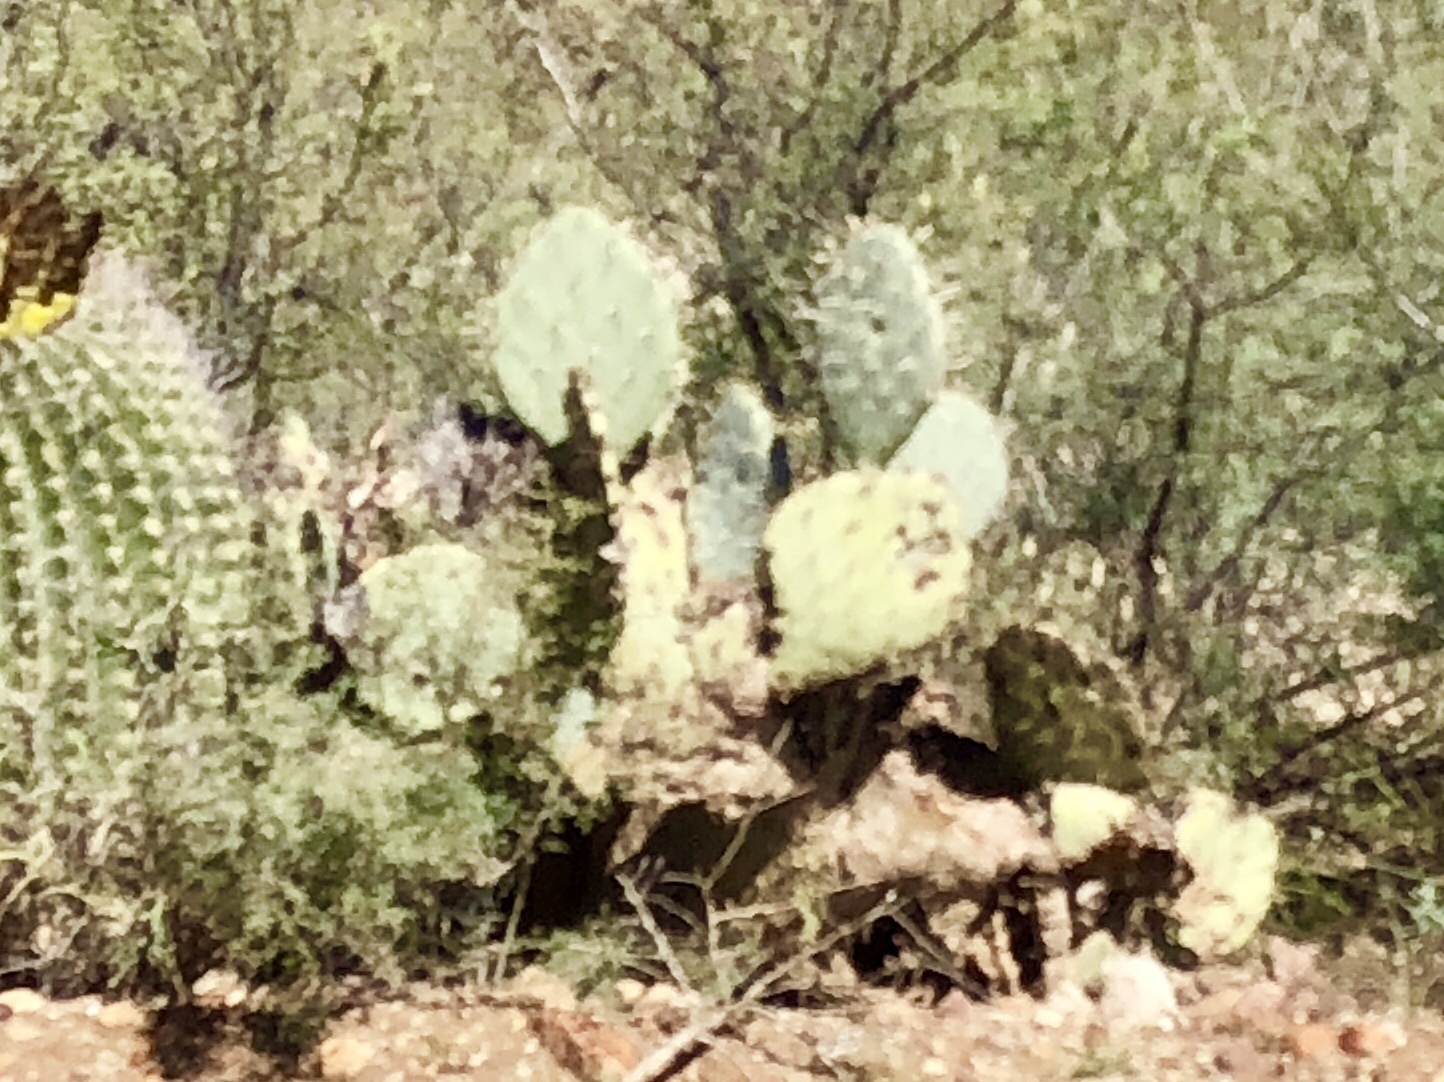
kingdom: Plantae
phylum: Tracheophyta
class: Magnoliopsida
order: Caryophyllales
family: Cactaceae
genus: Opuntia
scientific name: Opuntia engelmannii
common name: Cactus-apple
